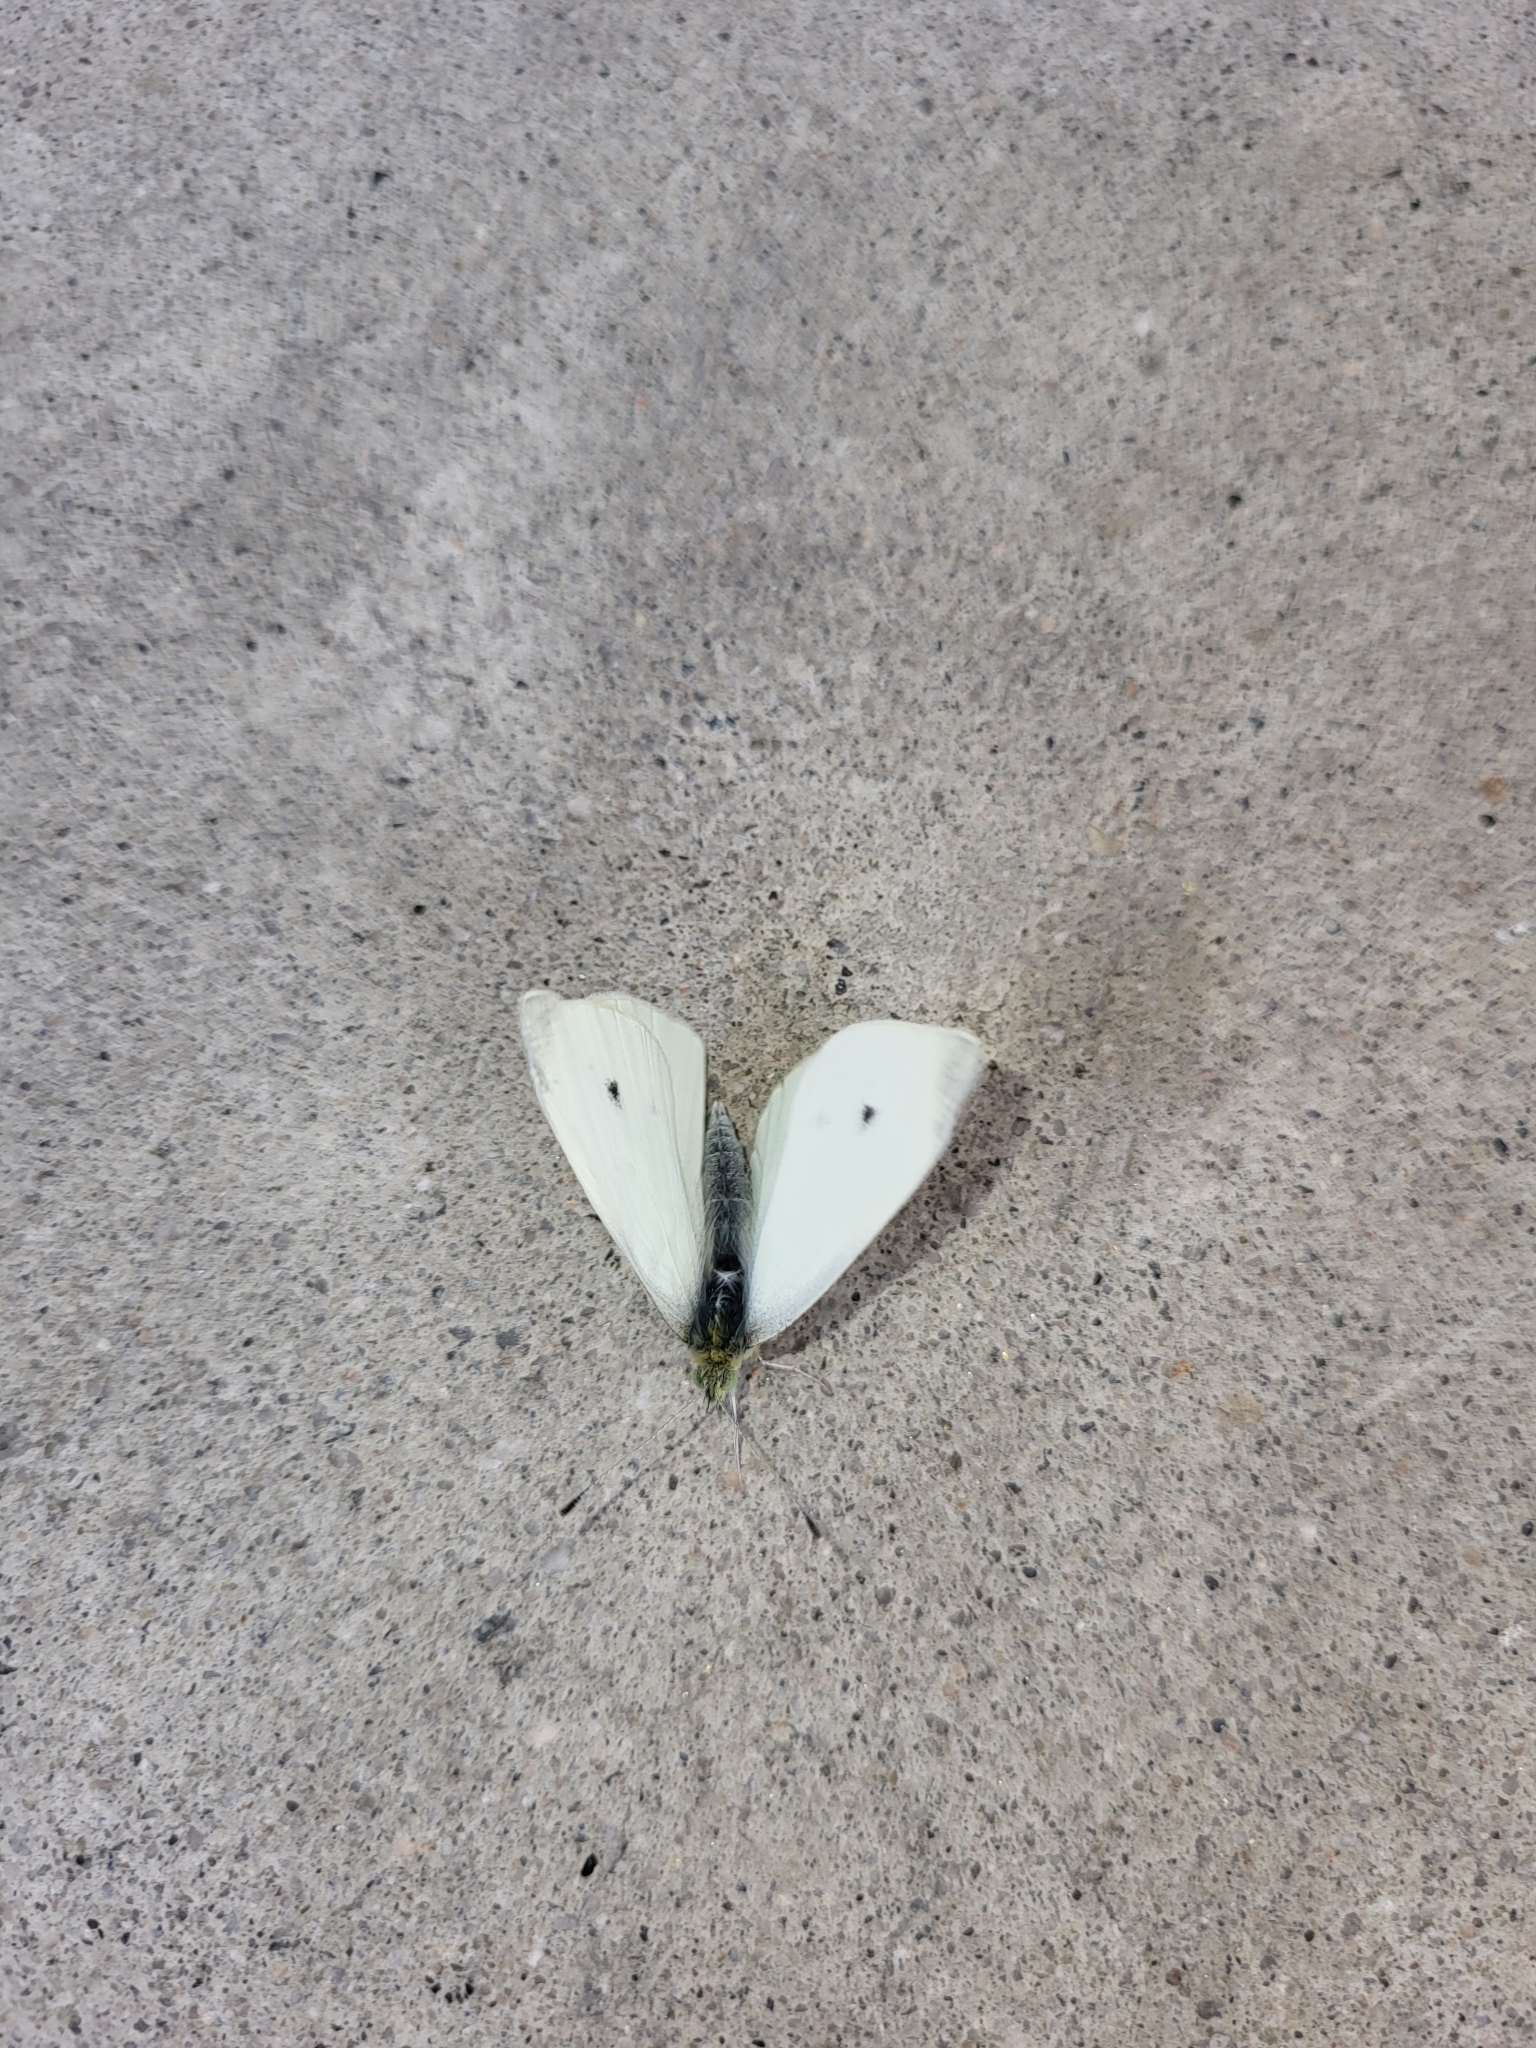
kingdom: Animalia
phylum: Arthropoda
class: Insecta
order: Lepidoptera
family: Pieridae
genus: Pieris
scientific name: Pieris rapae
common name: Small white
